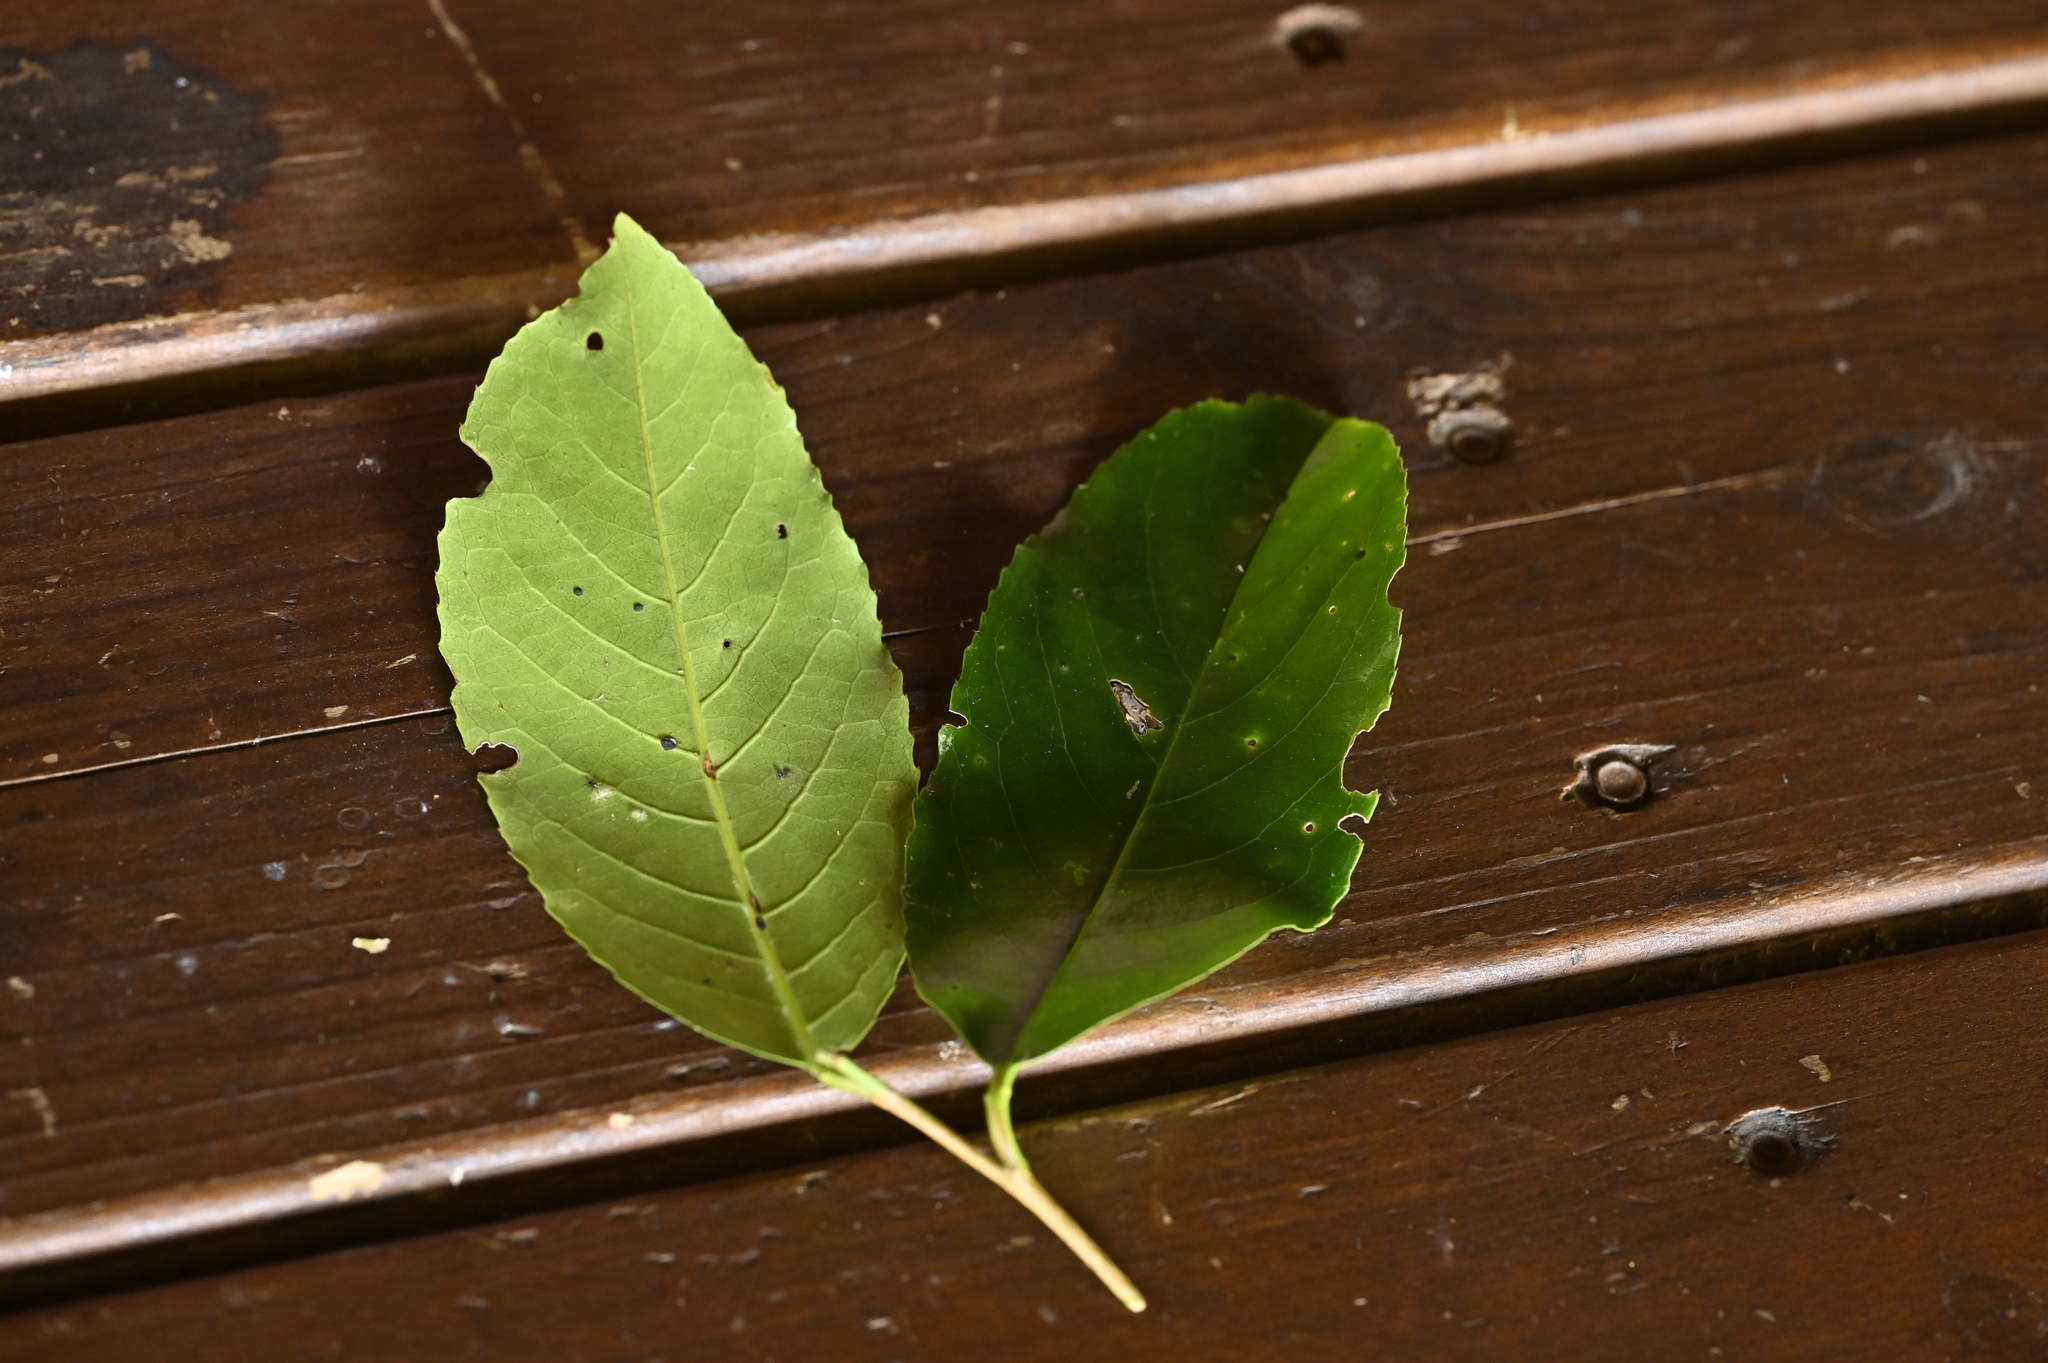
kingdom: Plantae
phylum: Tracheophyta
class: Magnoliopsida
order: Rosales
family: Rosaceae
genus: Prunus
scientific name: Prunus zippeliana
